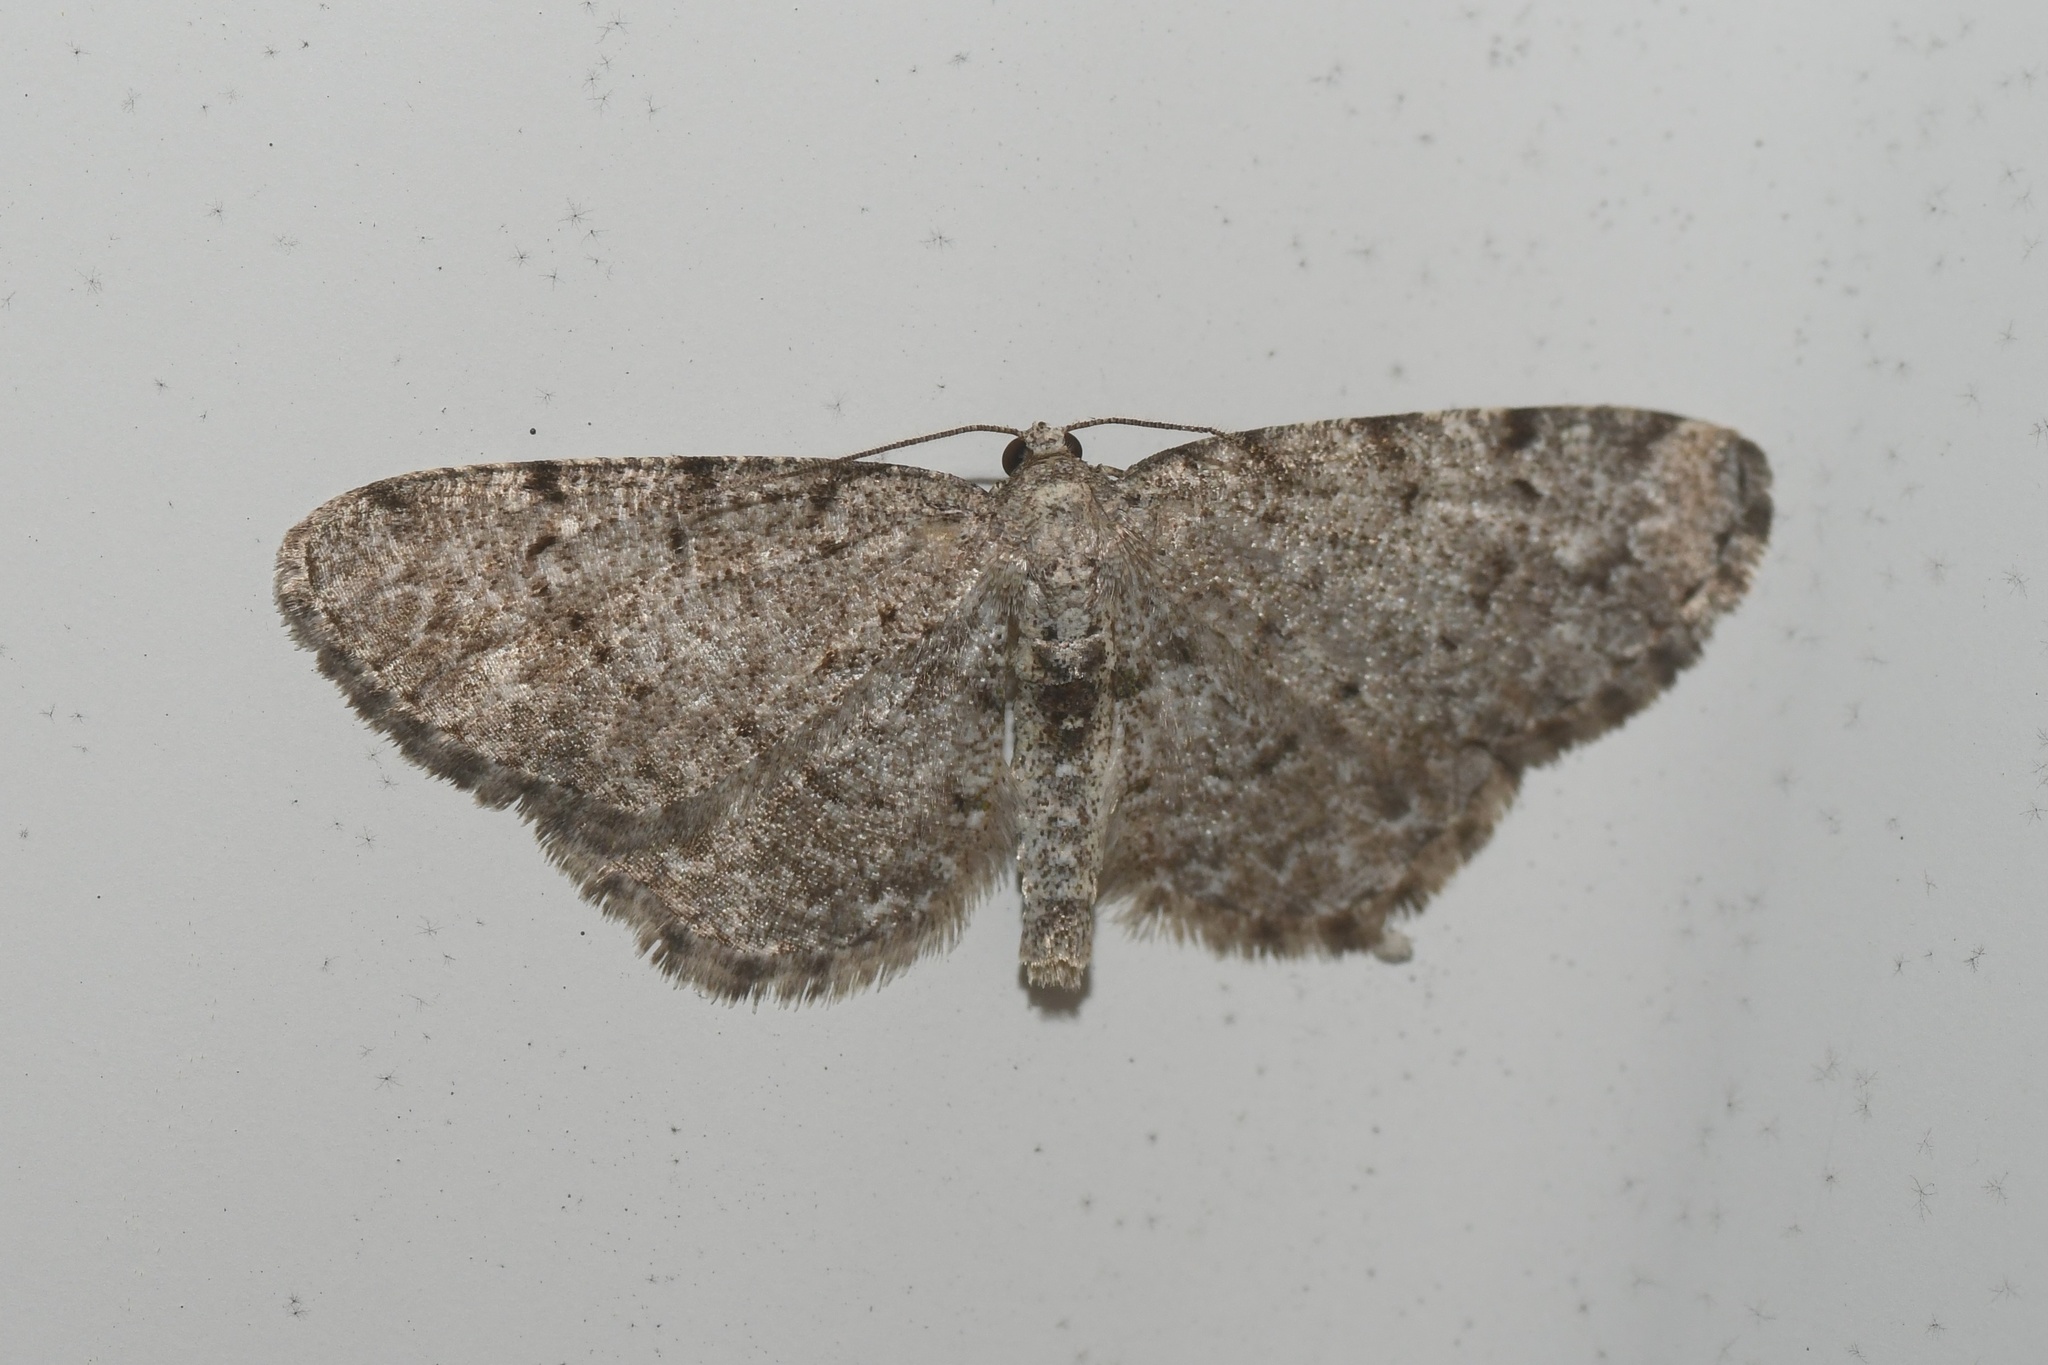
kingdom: Animalia
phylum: Arthropoda
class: Insecta
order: Lepidoptera
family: Geometridae
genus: Aethalura
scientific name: Aethalura intertexta
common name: Four-barred gray
